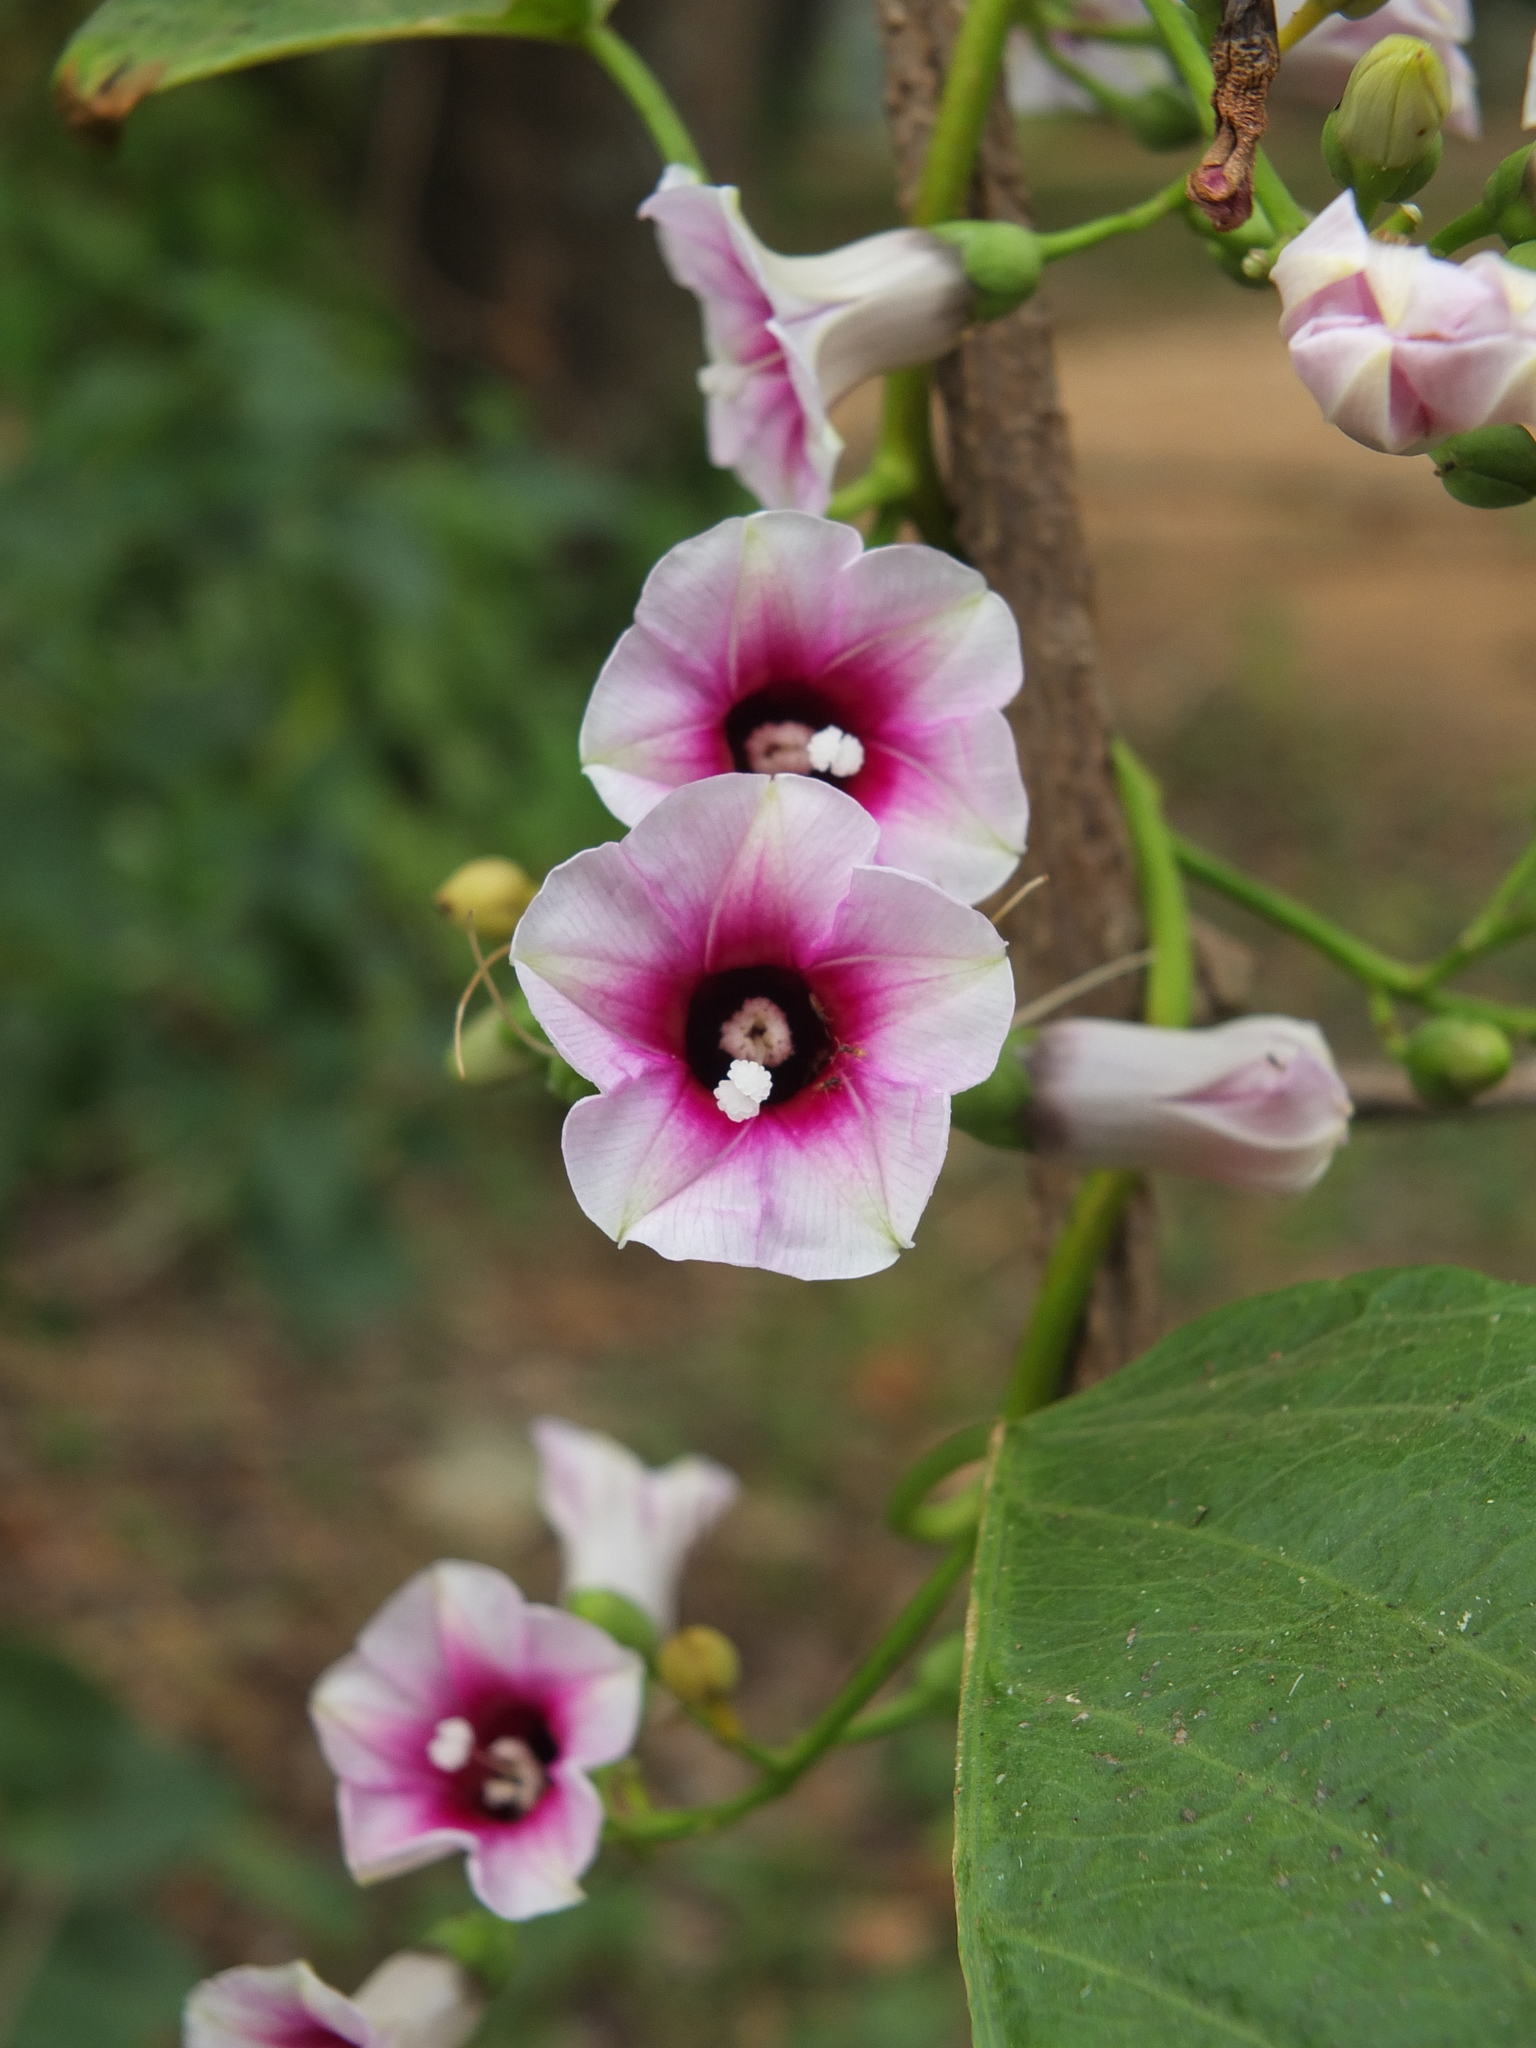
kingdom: Plantae
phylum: Tracheophyta
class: Magnoliopsida
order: Solanales
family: Convolvulaceae
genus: Ipomoea
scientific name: Ipomoea staphylina
